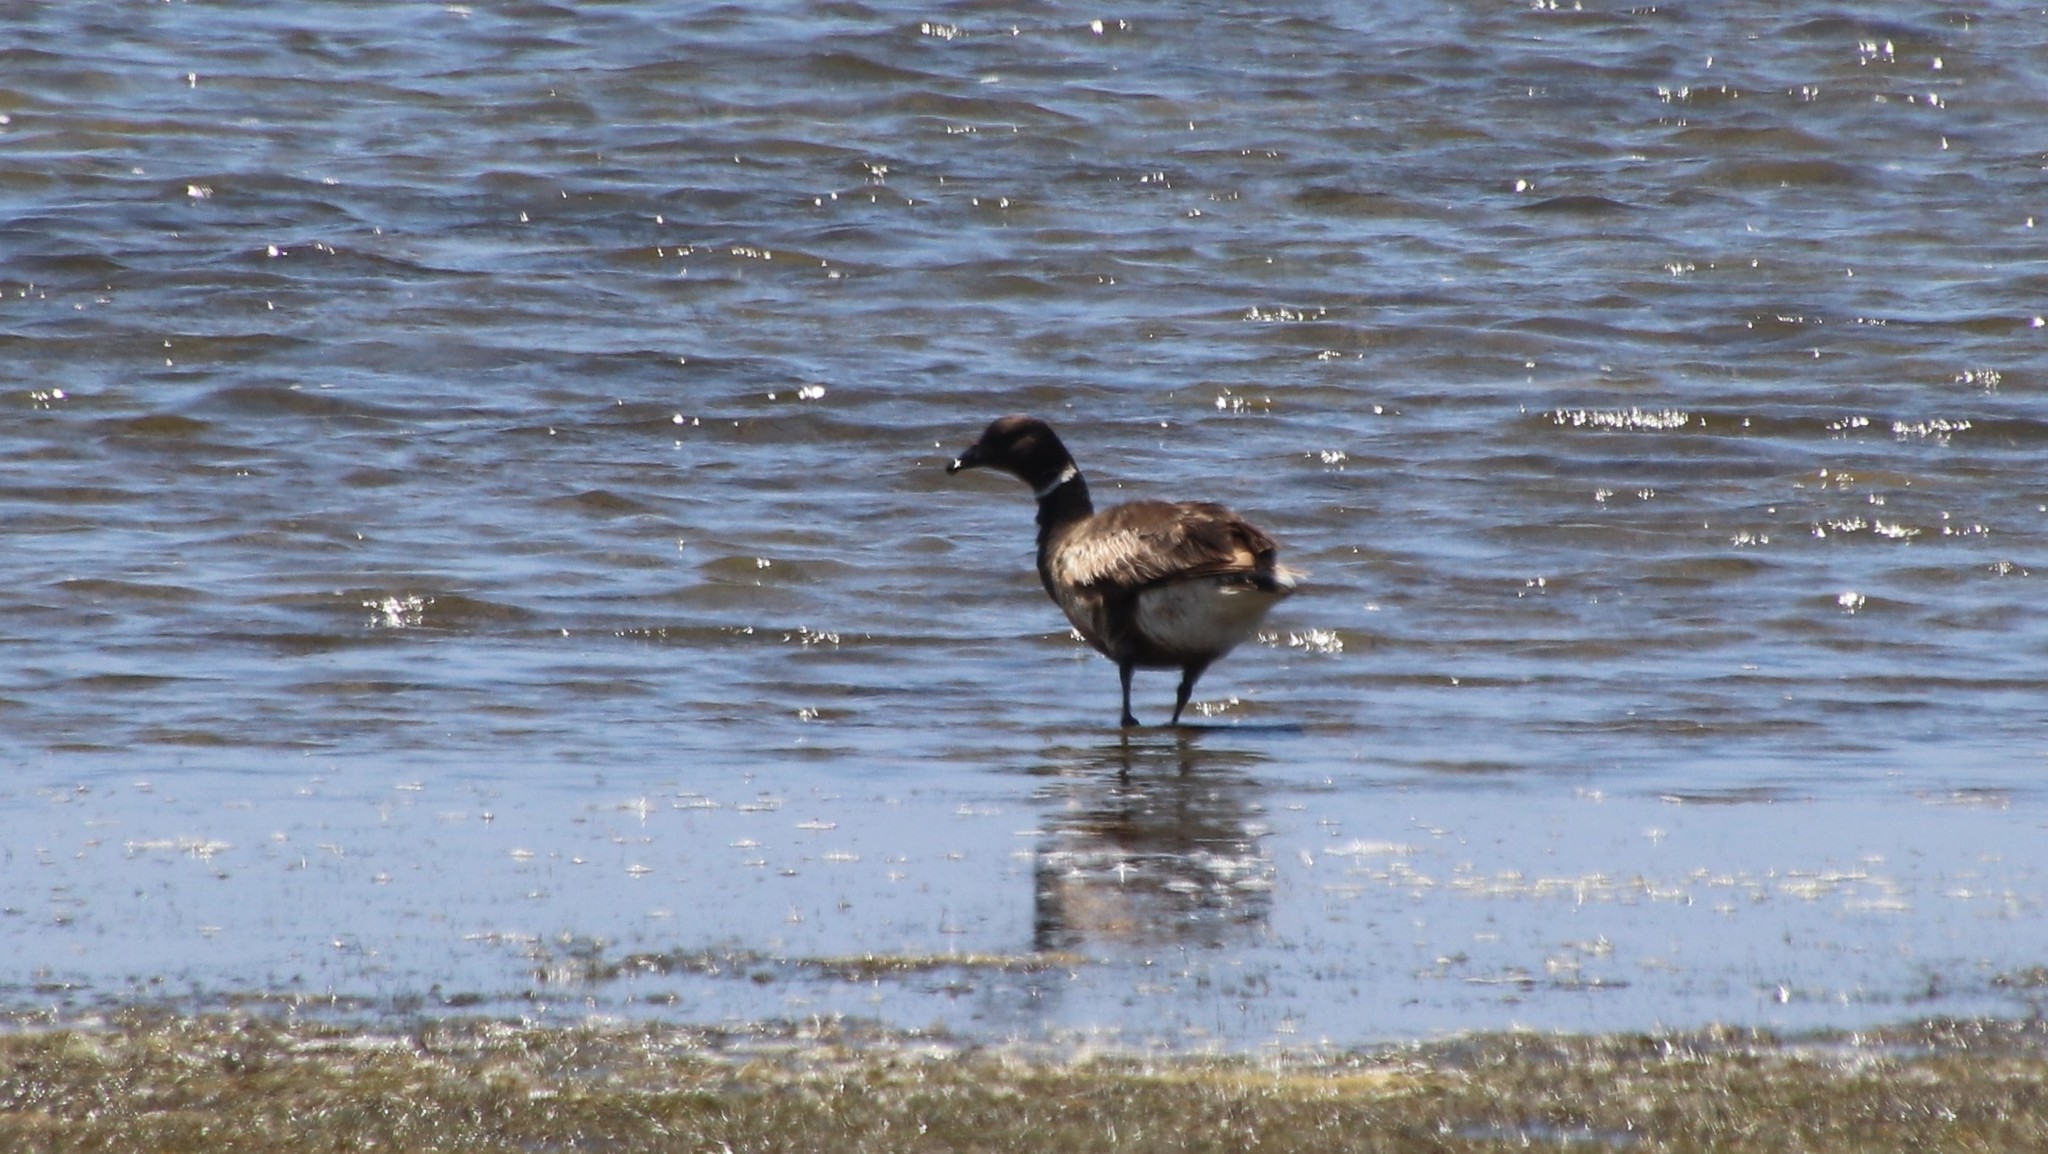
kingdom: Animalia
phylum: Chordata
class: Aves
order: Anseriformes
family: Anatidae
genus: Branta
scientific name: Branta bernicla
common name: Brant goose
